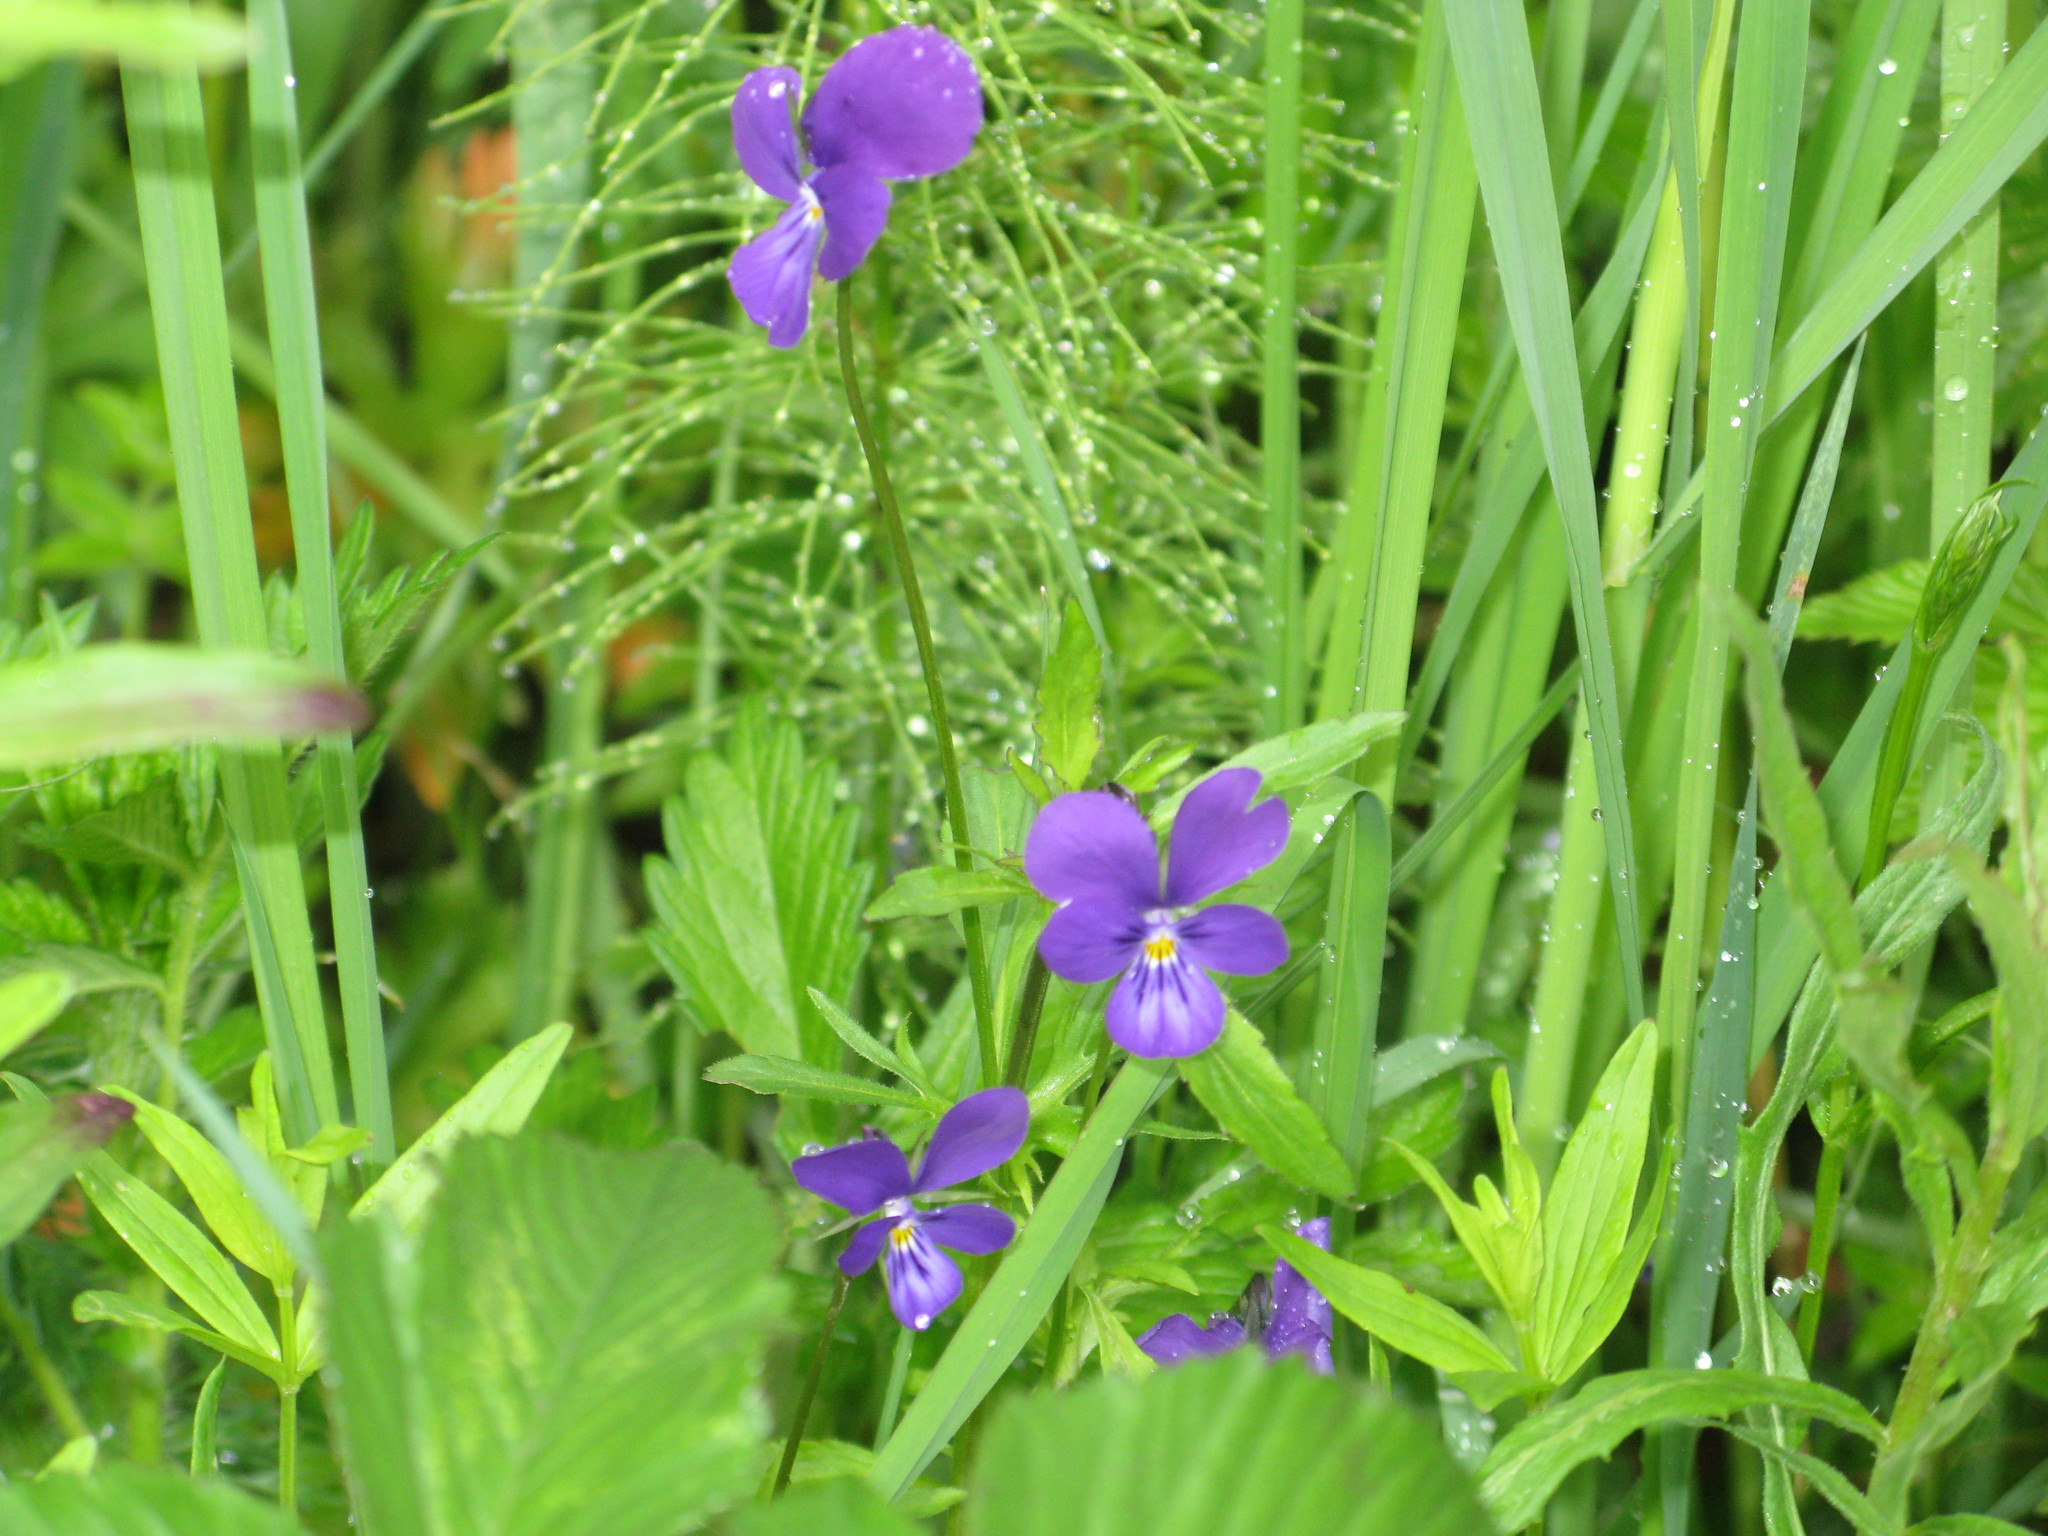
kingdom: Plantae
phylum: Tracheophyta
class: Magnoliopsida
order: Malpighiales
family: Violaceae
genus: Viola
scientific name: Viola tricolor
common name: Pansy
